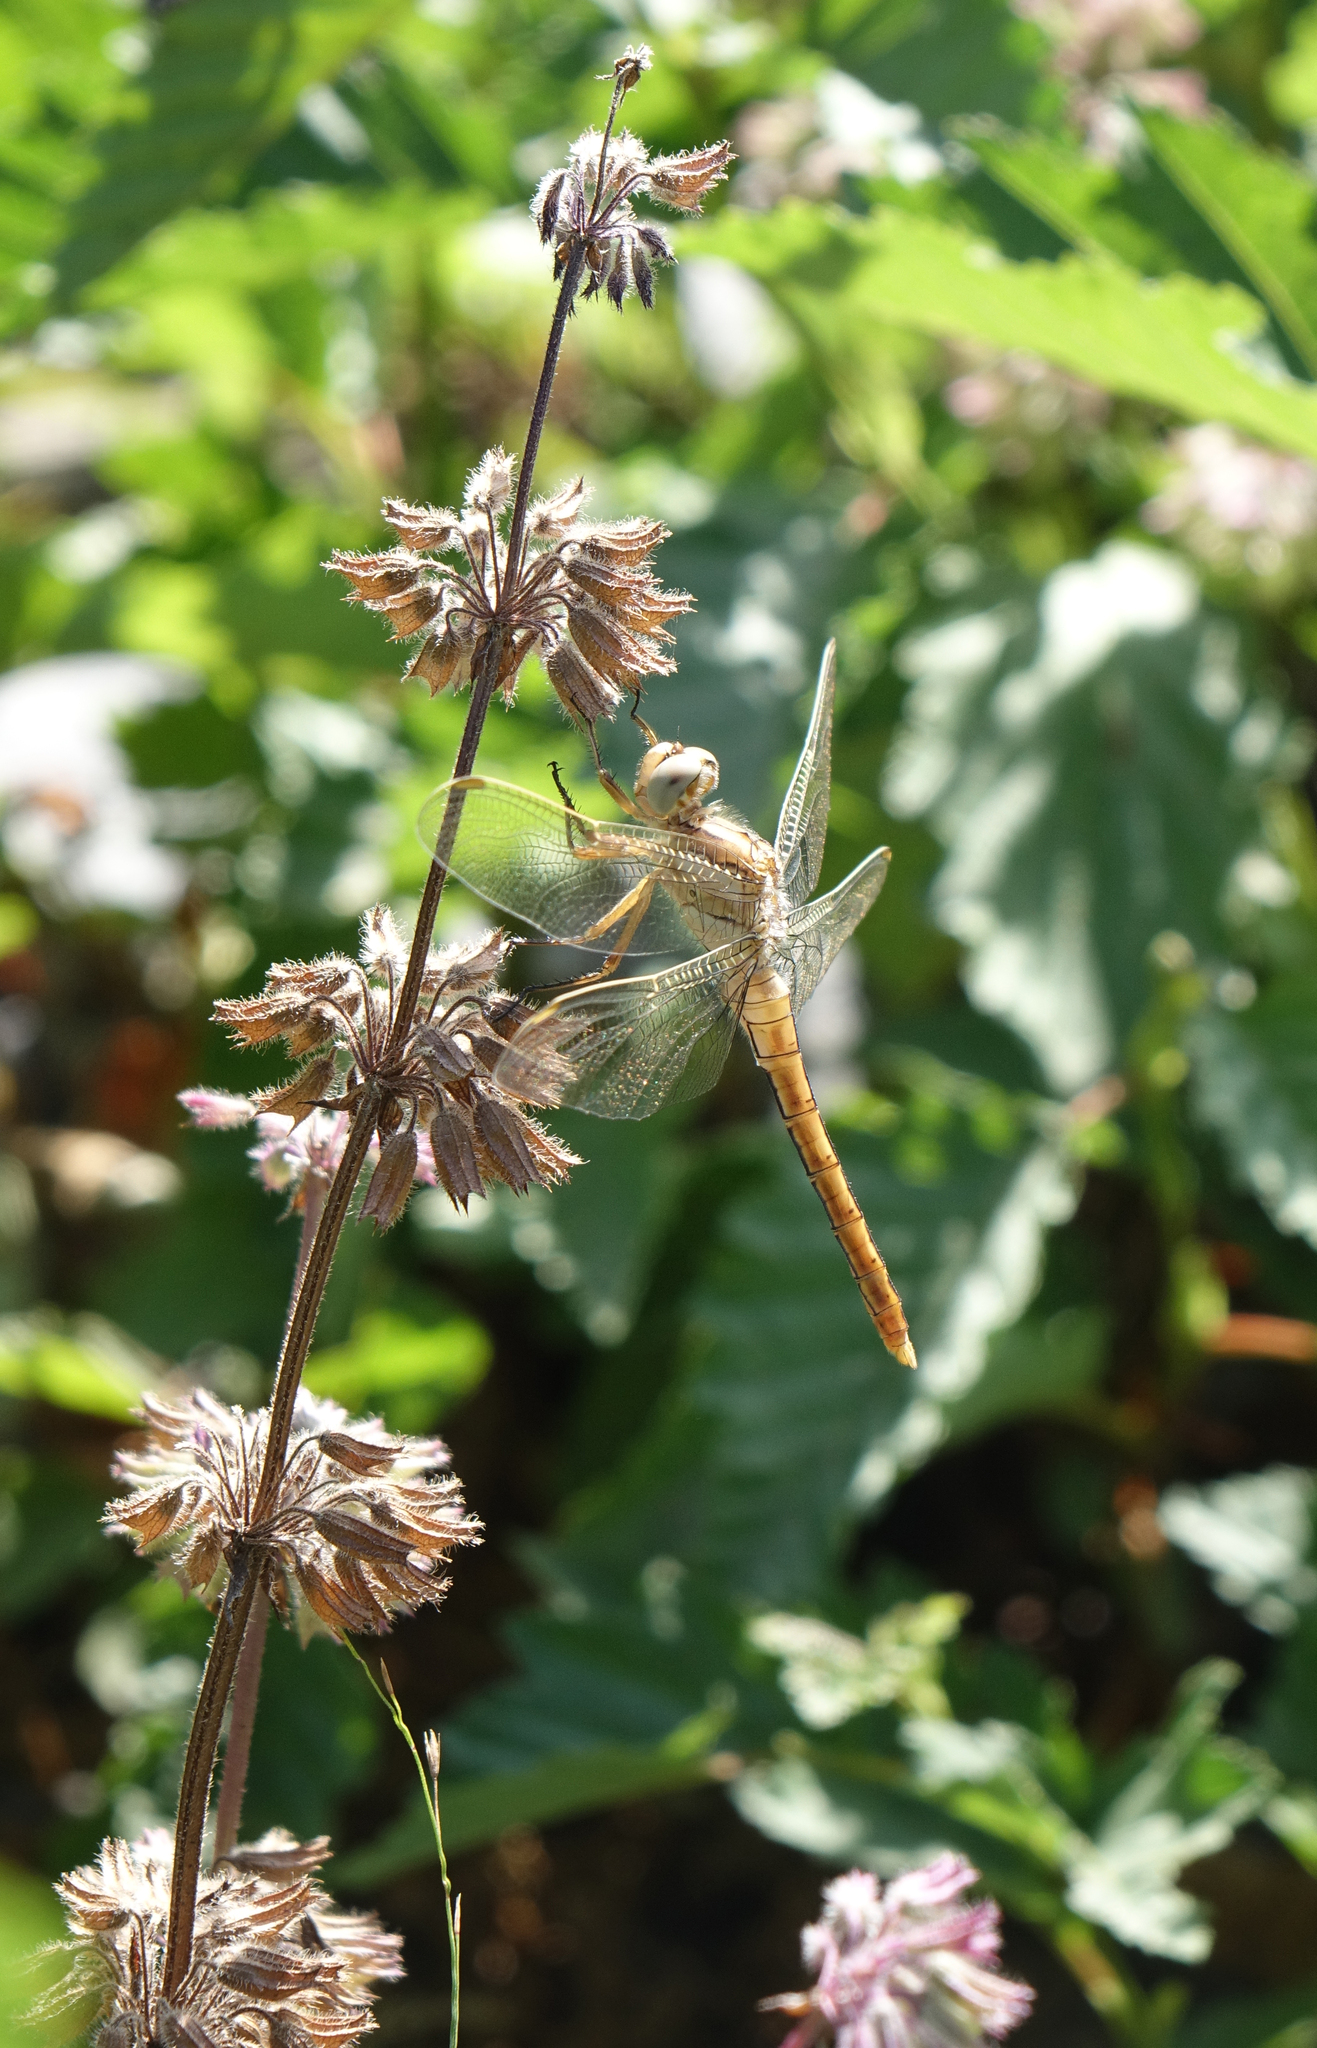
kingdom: Animalia
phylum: Arthropoda
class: Insecta
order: Odonata
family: Libellulidae
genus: Orthetrum
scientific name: Orthetrum brunneum
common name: Southern skimmer
